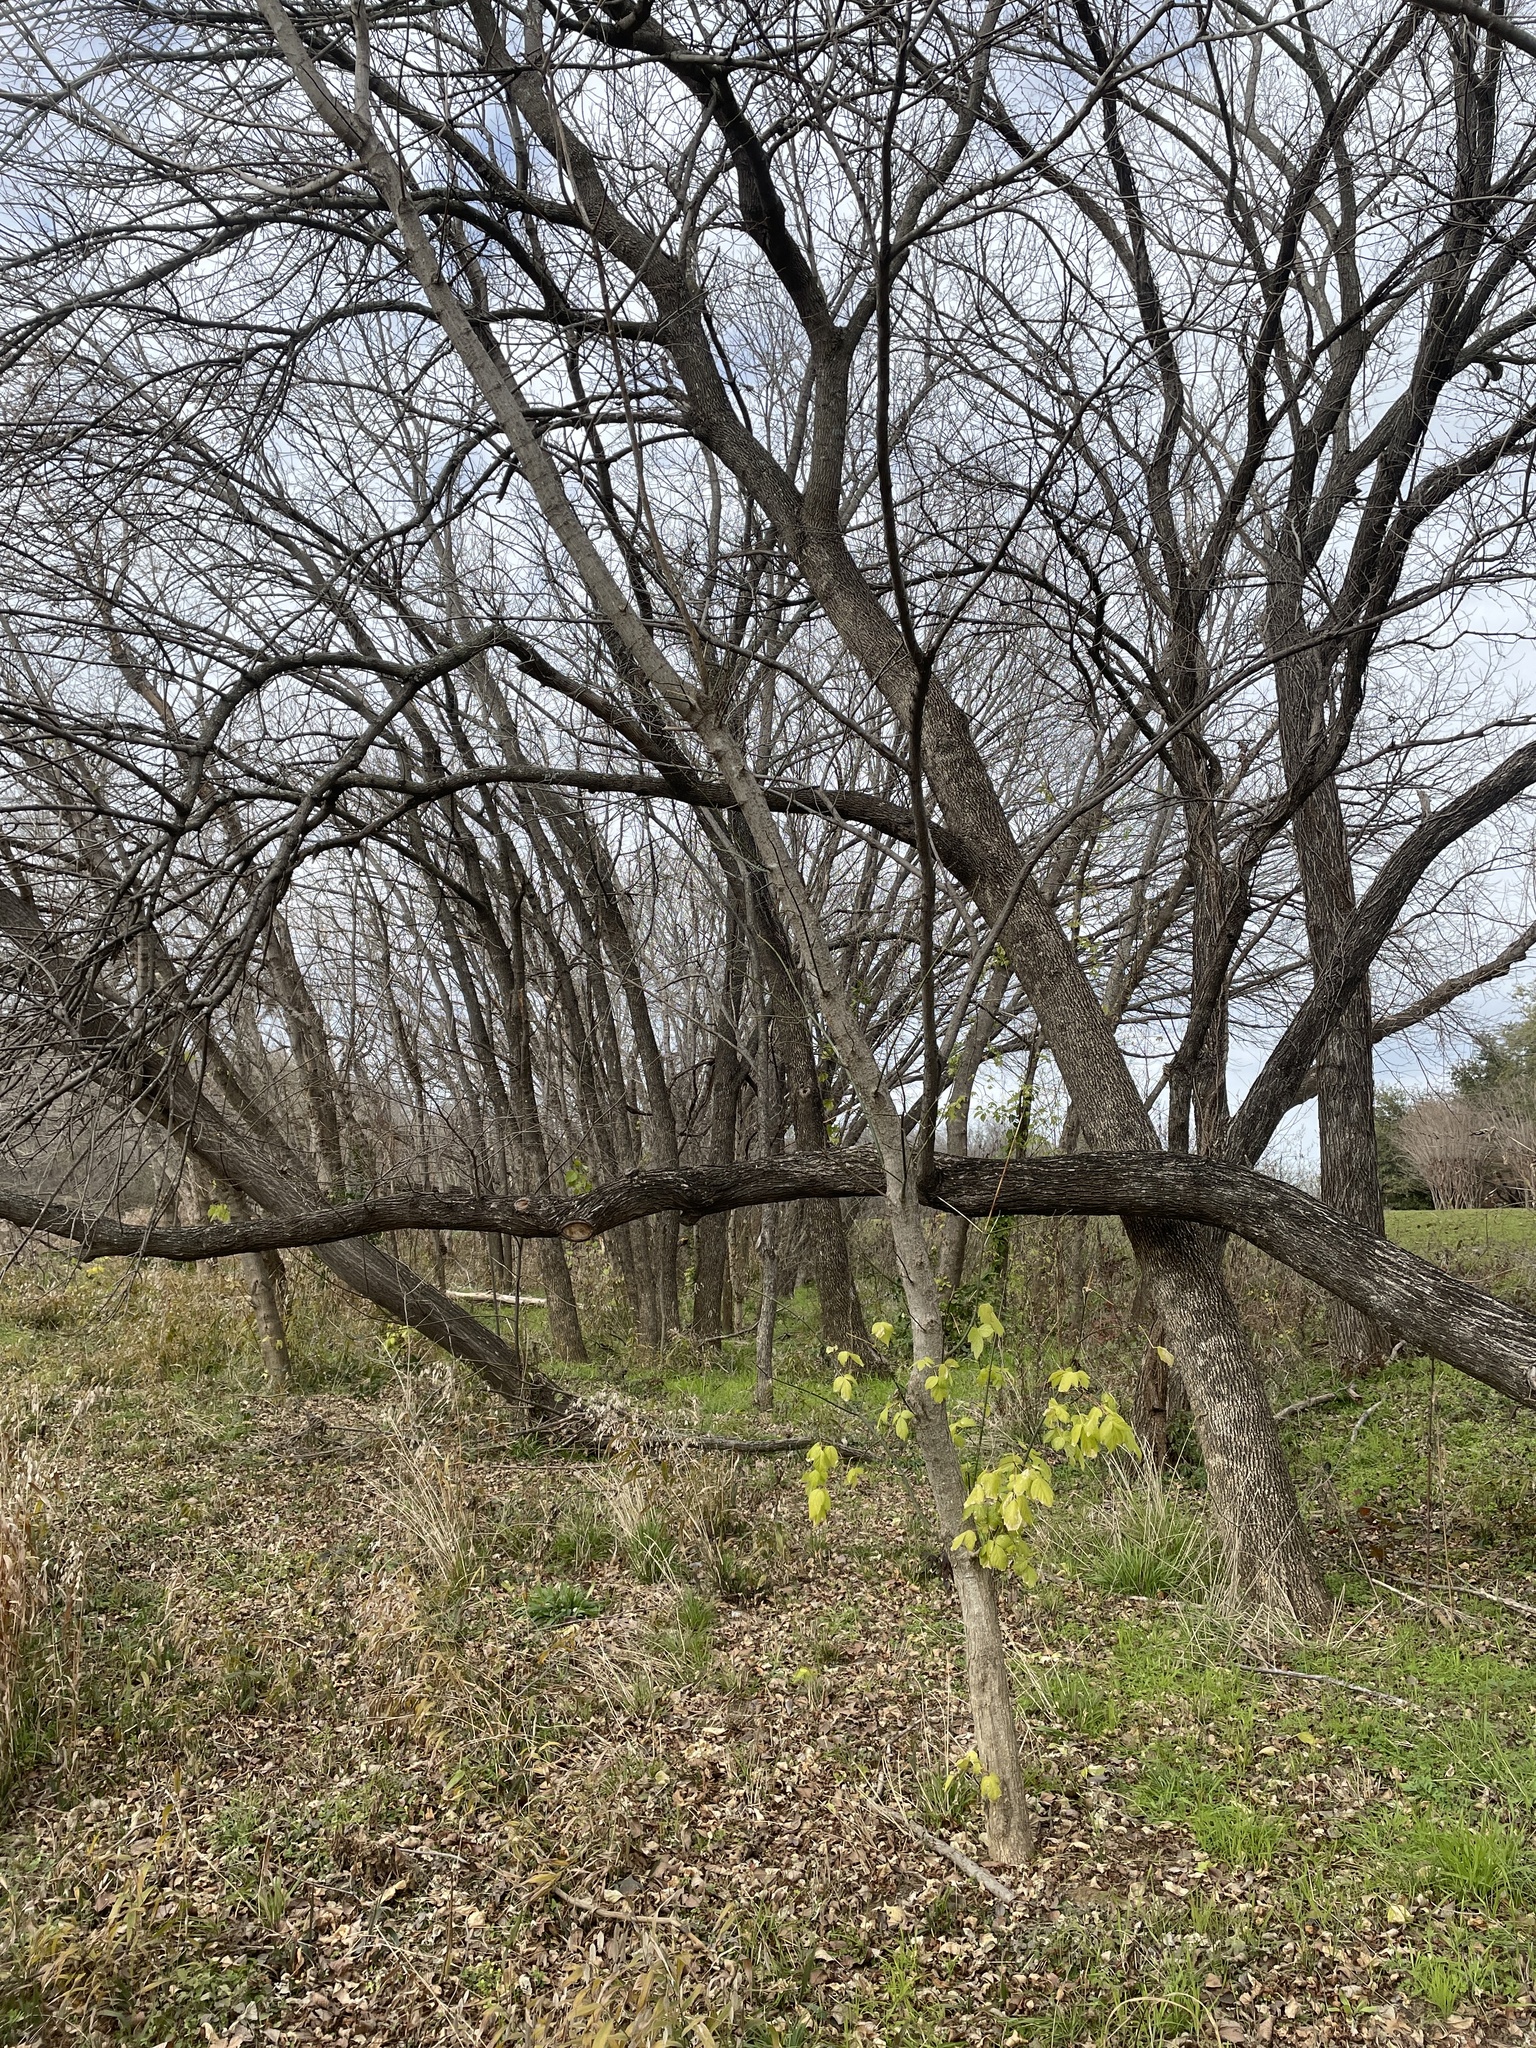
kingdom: Plantae
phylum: Tracheophyta
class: Magnoliopsida
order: Sapindales
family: Sapindaceae
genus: Acer
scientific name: Acer negundo
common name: Ashleaf maple
